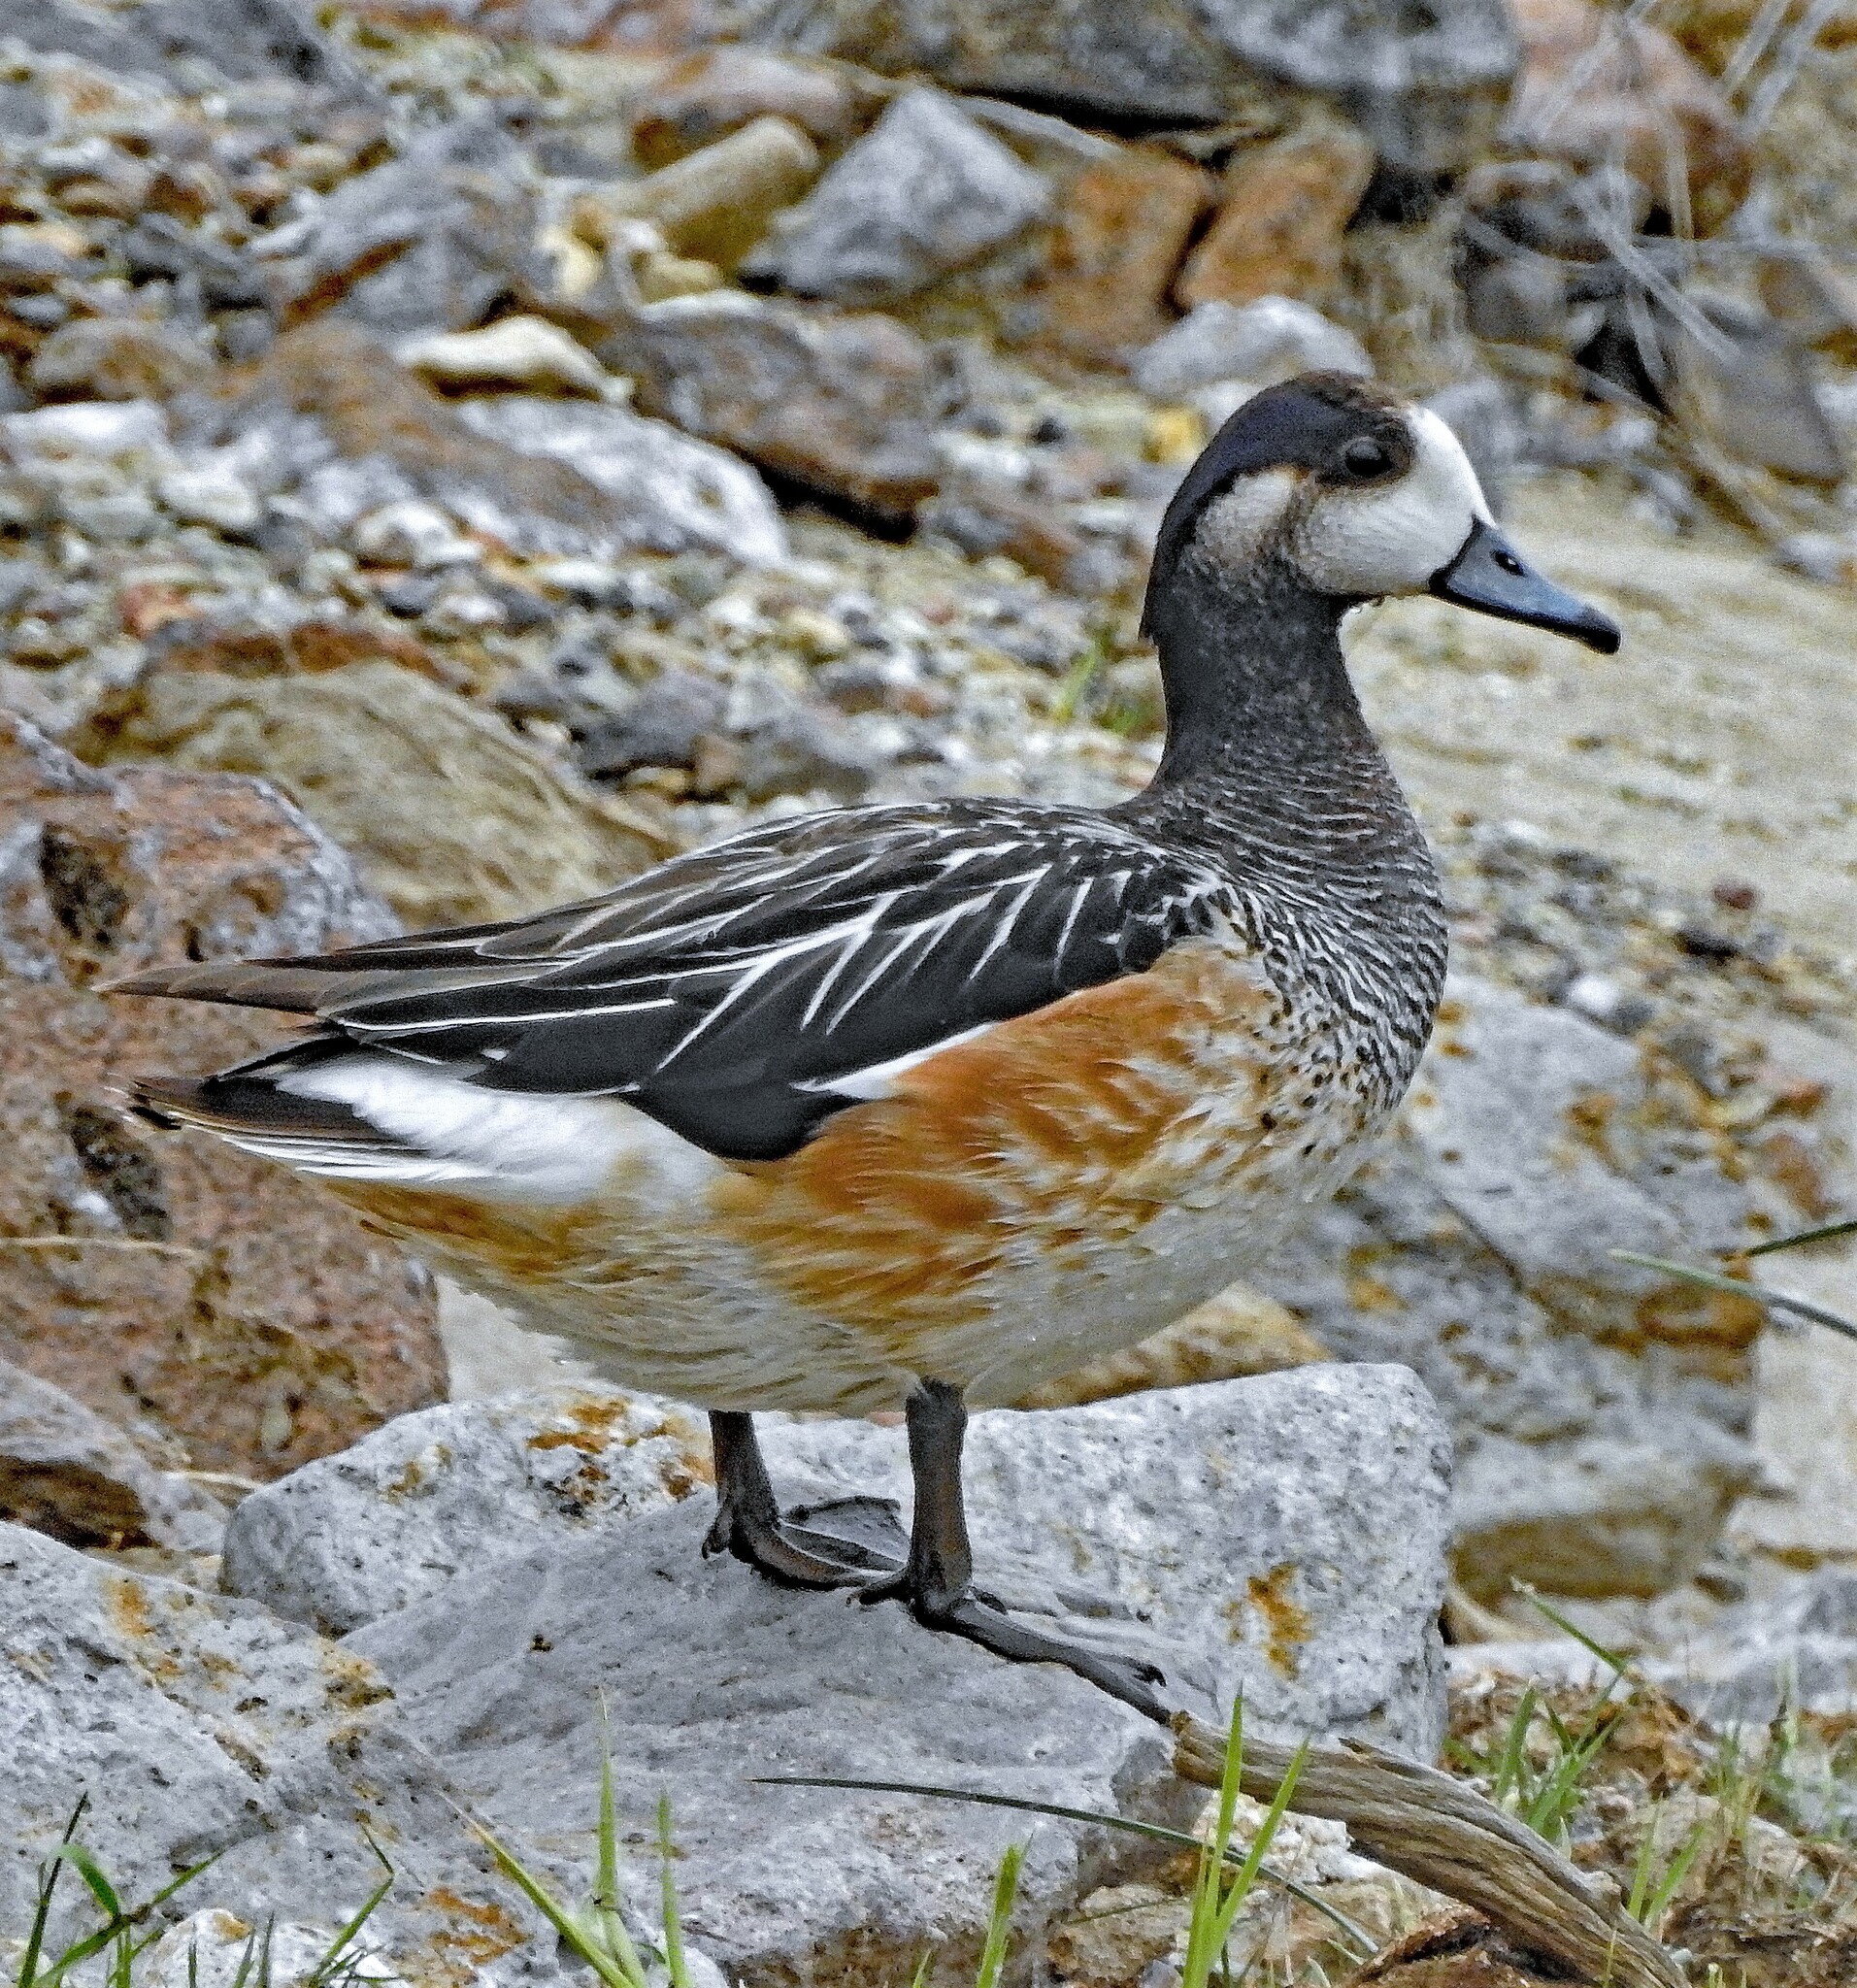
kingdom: Animalia
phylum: Chordata
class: Aves
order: Anseriformes
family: Anatidae
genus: Mareca
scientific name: Mareca sibilatrix
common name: Chiloe wigeon
